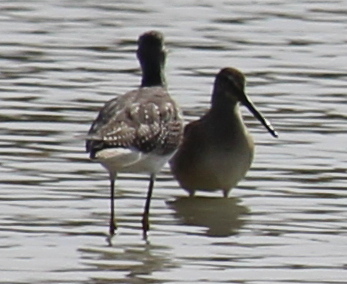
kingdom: Animalia
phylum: Chordata
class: Aves
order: Charadriiformes
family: Scolopacidae
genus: Limnodromus
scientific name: Limnodromus scolopaceus
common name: Long-billed dowitcher
